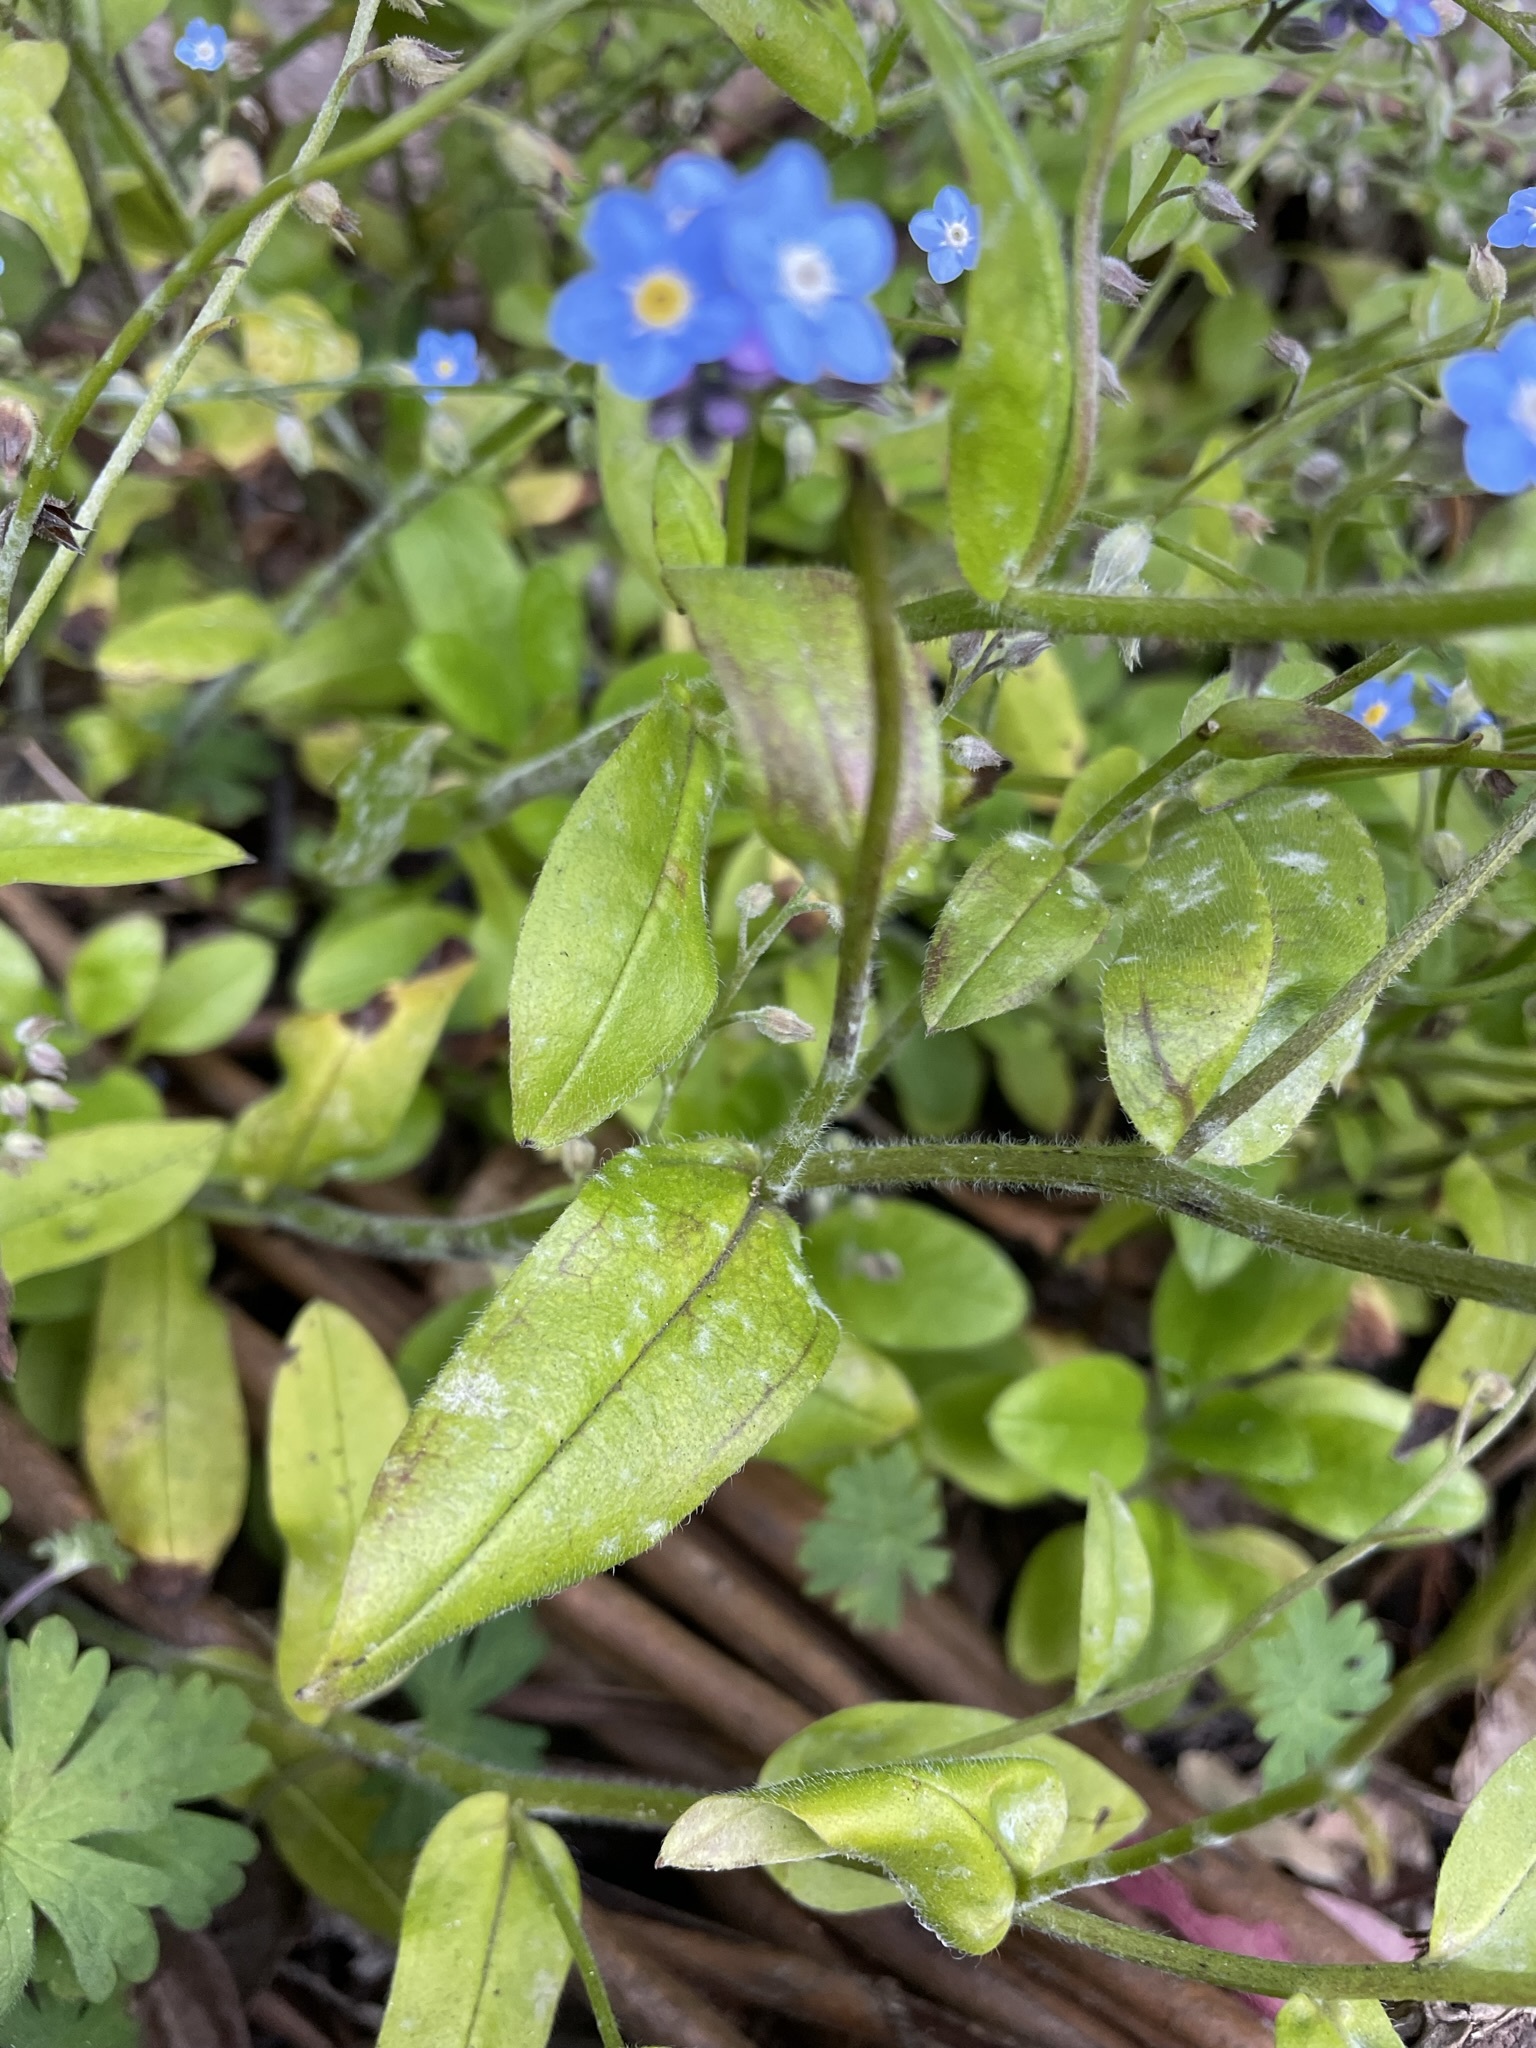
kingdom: Plantae
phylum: Tracheophyta
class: Magnoliopsida
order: Boraginales
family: Boraginaceae
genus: Myosotis
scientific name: Myosotis sylvatica
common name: Wood forget-me-not
